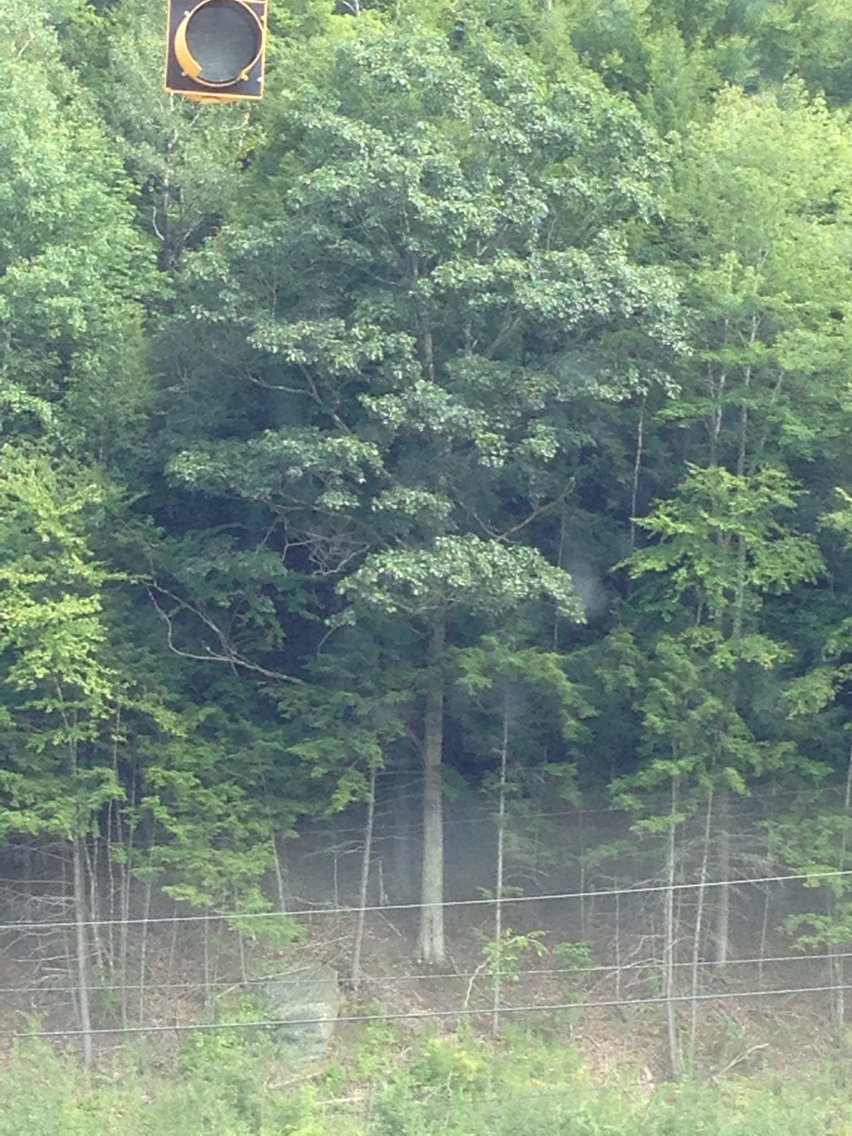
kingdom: Plantae
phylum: Tracheophyta
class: Magnoliopsida
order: Fagales
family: Fagaceae
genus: Quercus
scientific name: Quercus rubra
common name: Red oak
